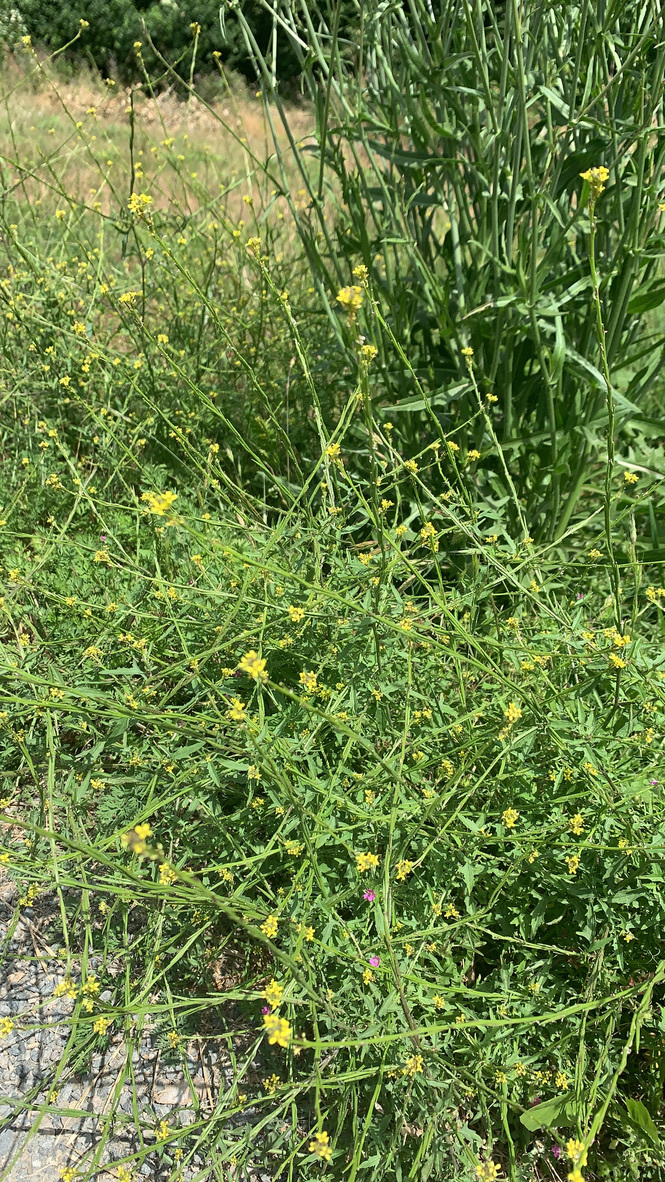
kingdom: Plantae
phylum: Tracheophyta
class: Magnoliopsida
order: Brassicales
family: Brassicaceae
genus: Sisymbrium
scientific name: Sisymbrium officinale
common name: Hedge mustard
